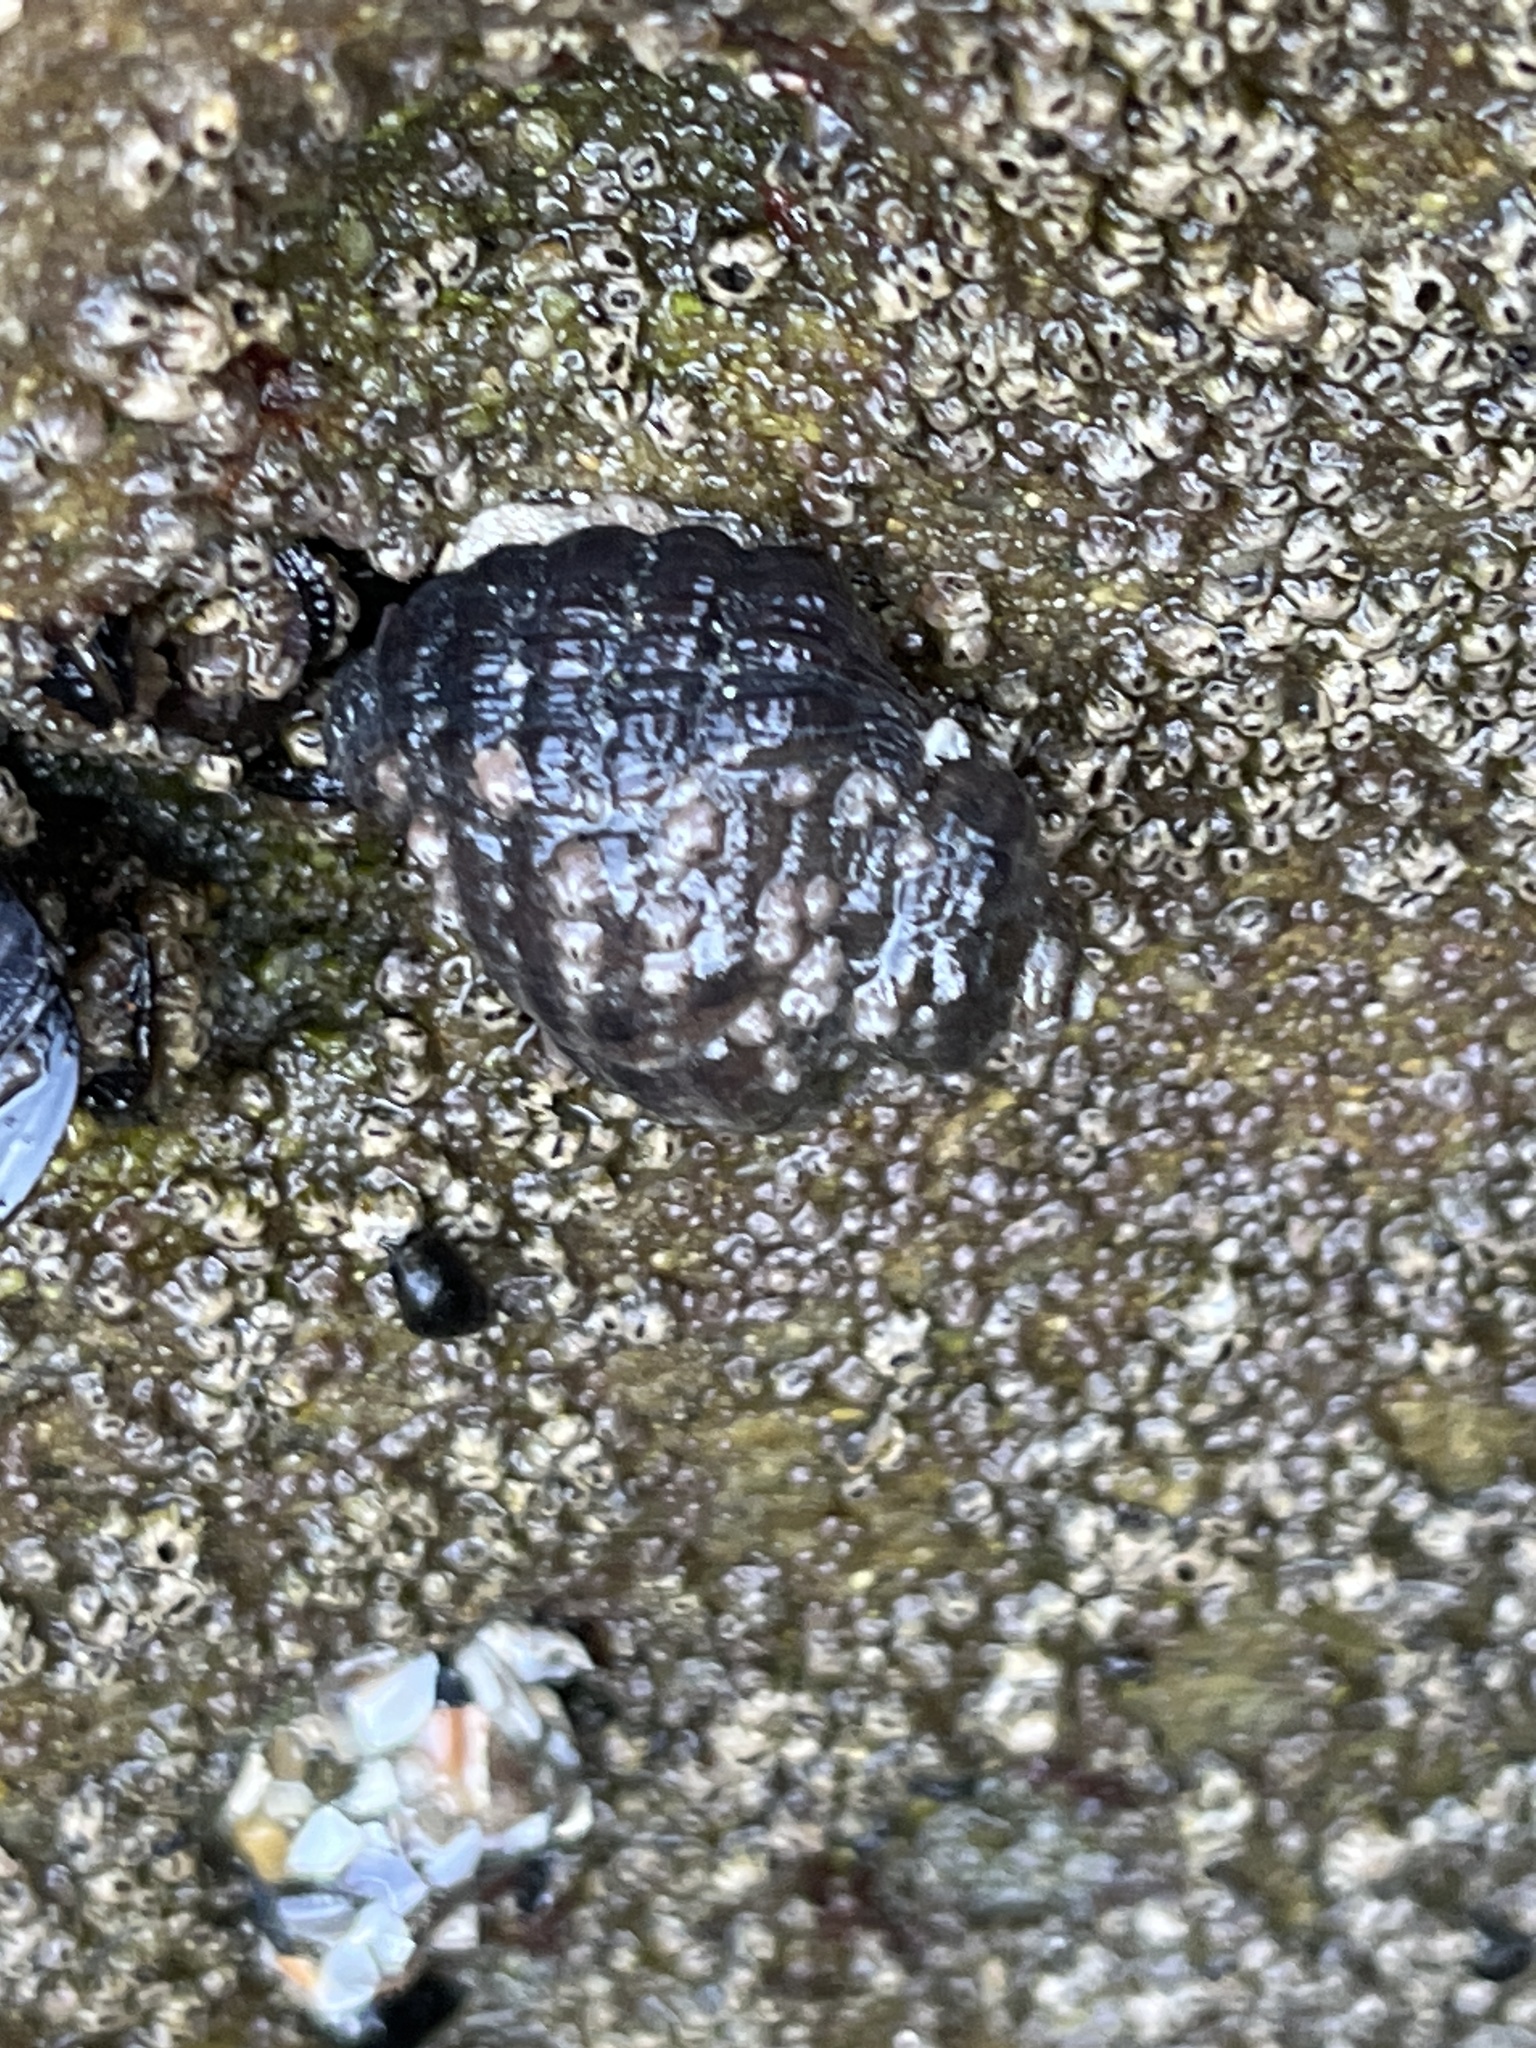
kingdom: Animalia
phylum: Mollusca
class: Gastropoda
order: Neogastropoda
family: Muricidae
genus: Mexacanthina
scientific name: Mexacanthina lugubris
